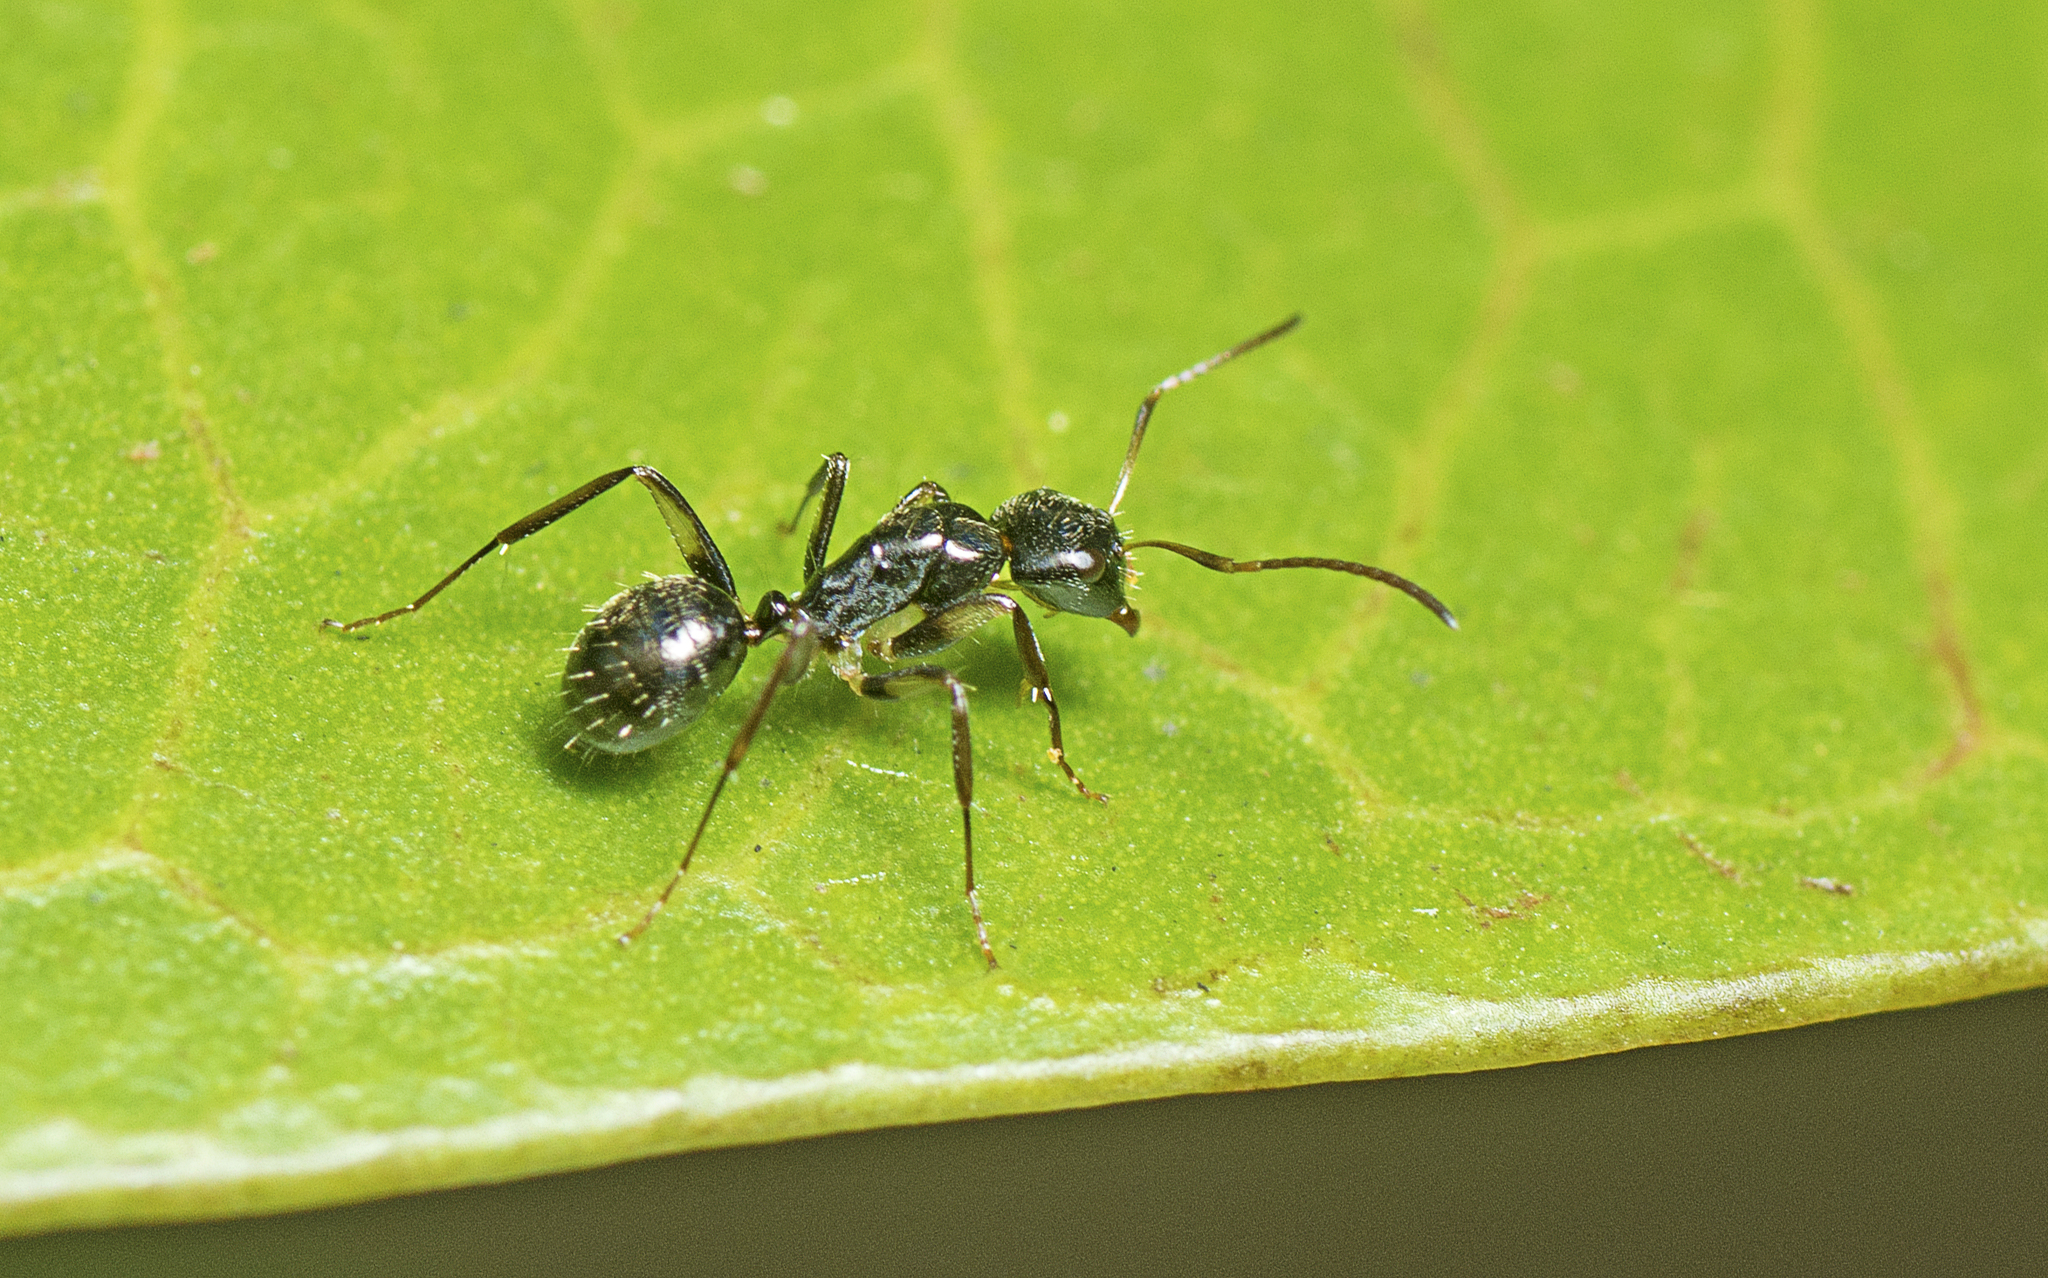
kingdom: Animalia
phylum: Arthropoda
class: Insecta
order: Hymenoptera
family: Formicidae
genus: Camponotus
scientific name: Camponotus froggatti
